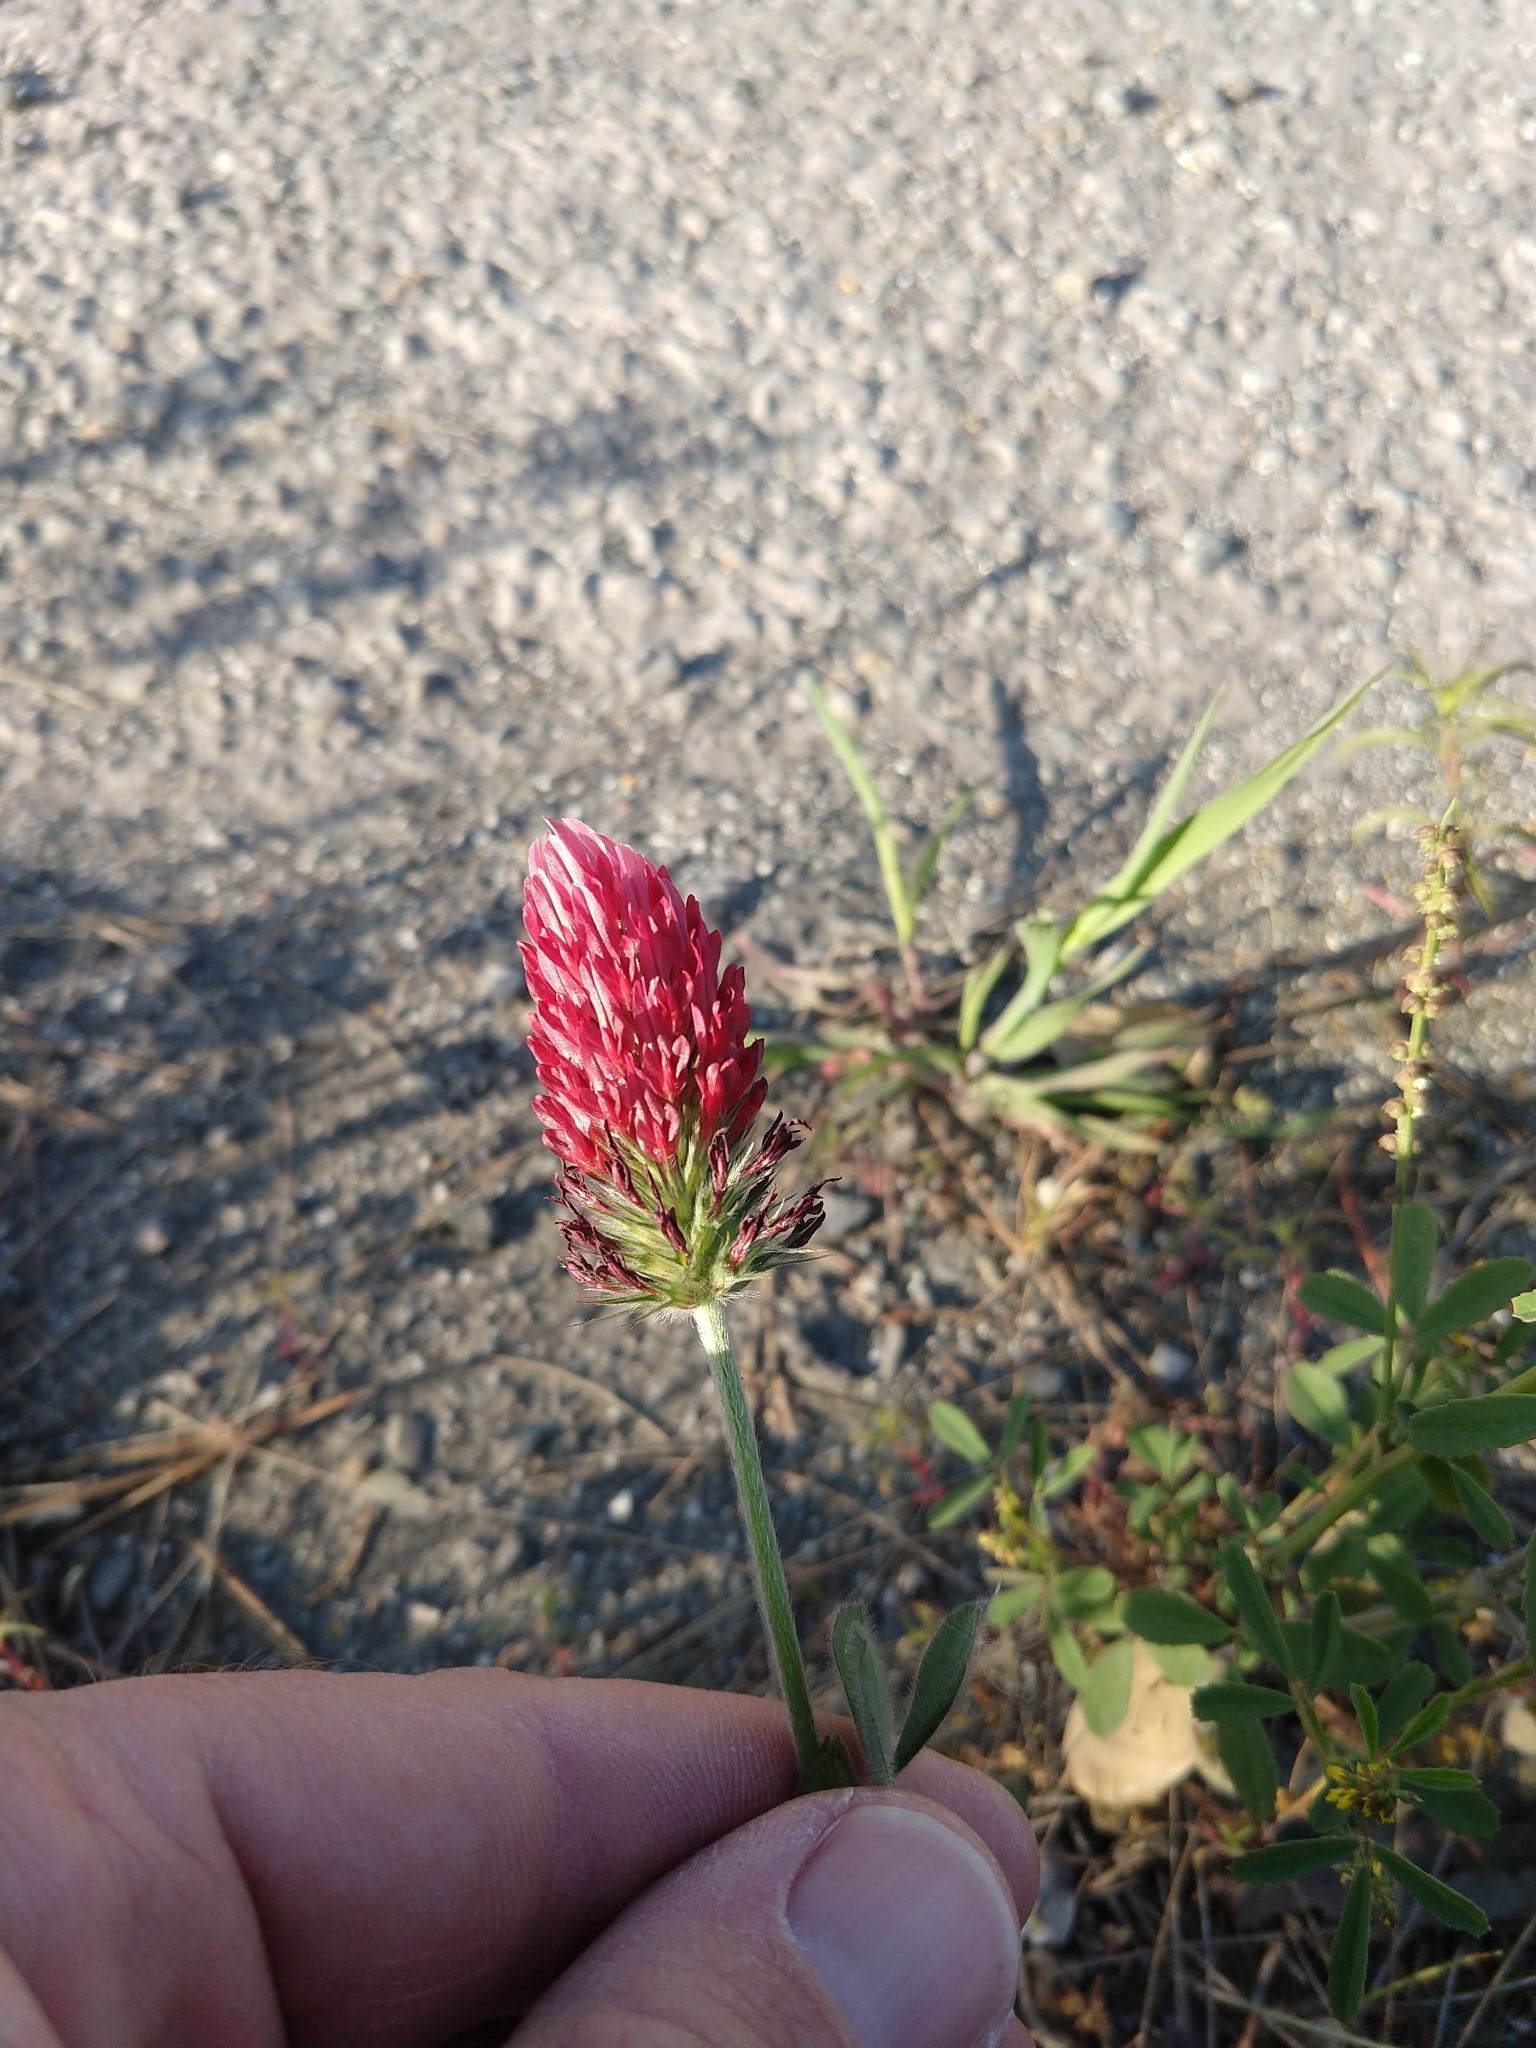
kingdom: Plantae
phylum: Tracheophyta
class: Magnoliopsida
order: Fabales
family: Fabaceae
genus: Trifolium
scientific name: Trifolium incarnatum
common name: Crimson clover
